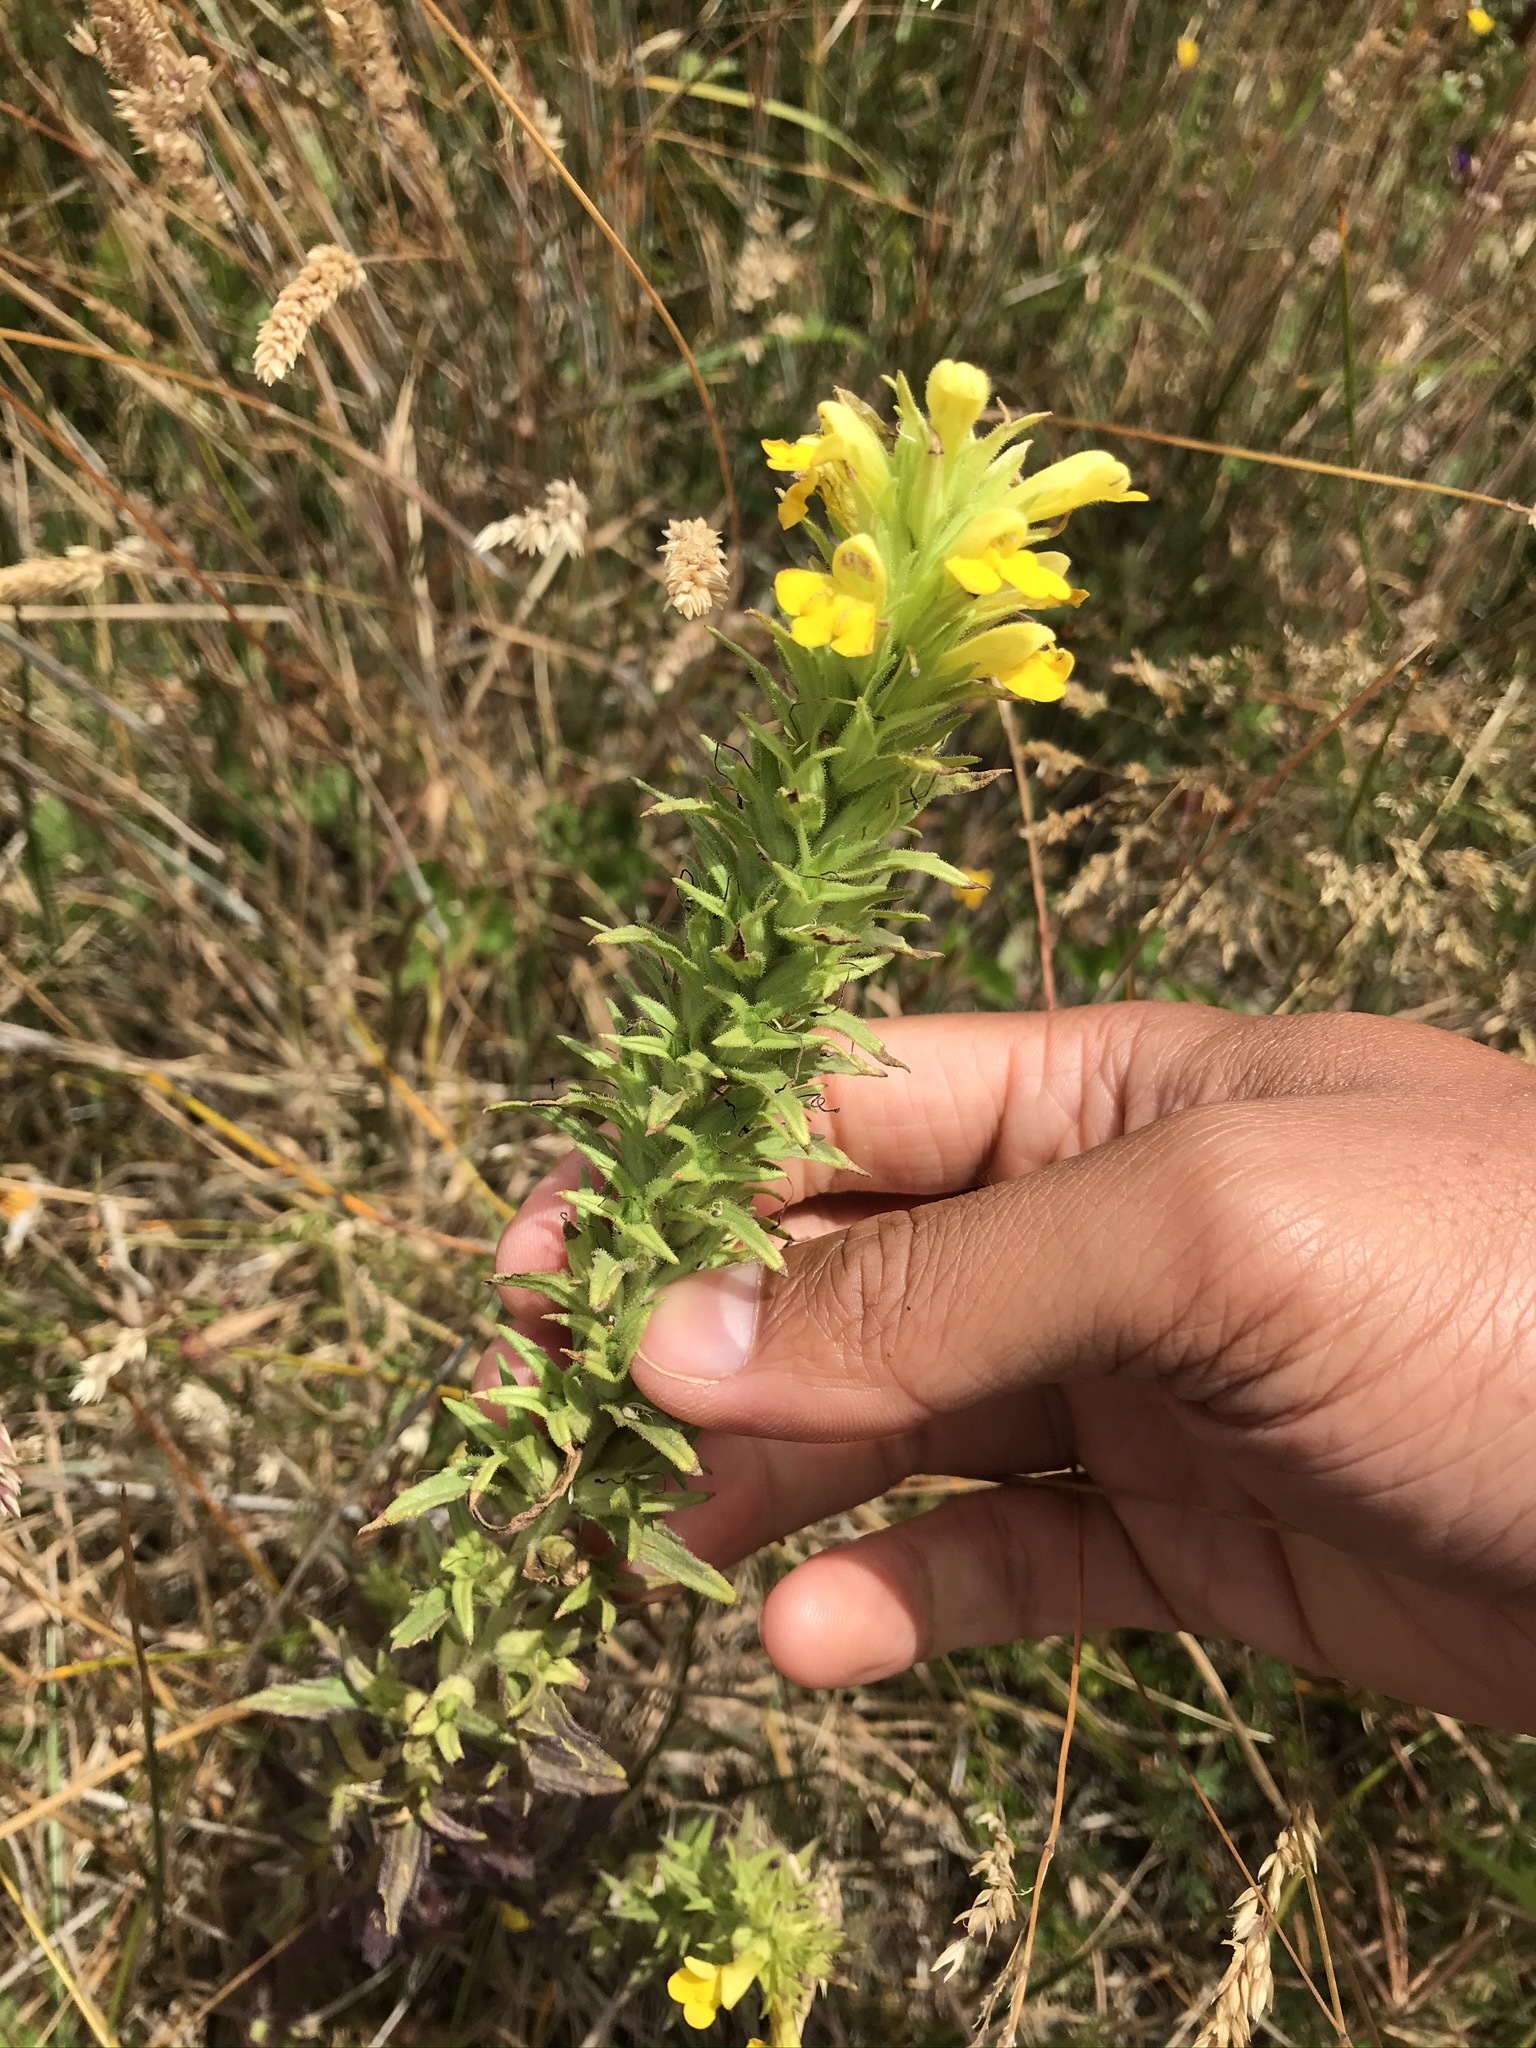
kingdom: Plantae
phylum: Tracheophyta
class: Magnoliopsida
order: Lamiales
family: Orobanchaceae
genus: Bellardia
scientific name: Bellardia viscosa
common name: Sticky parentucellia
